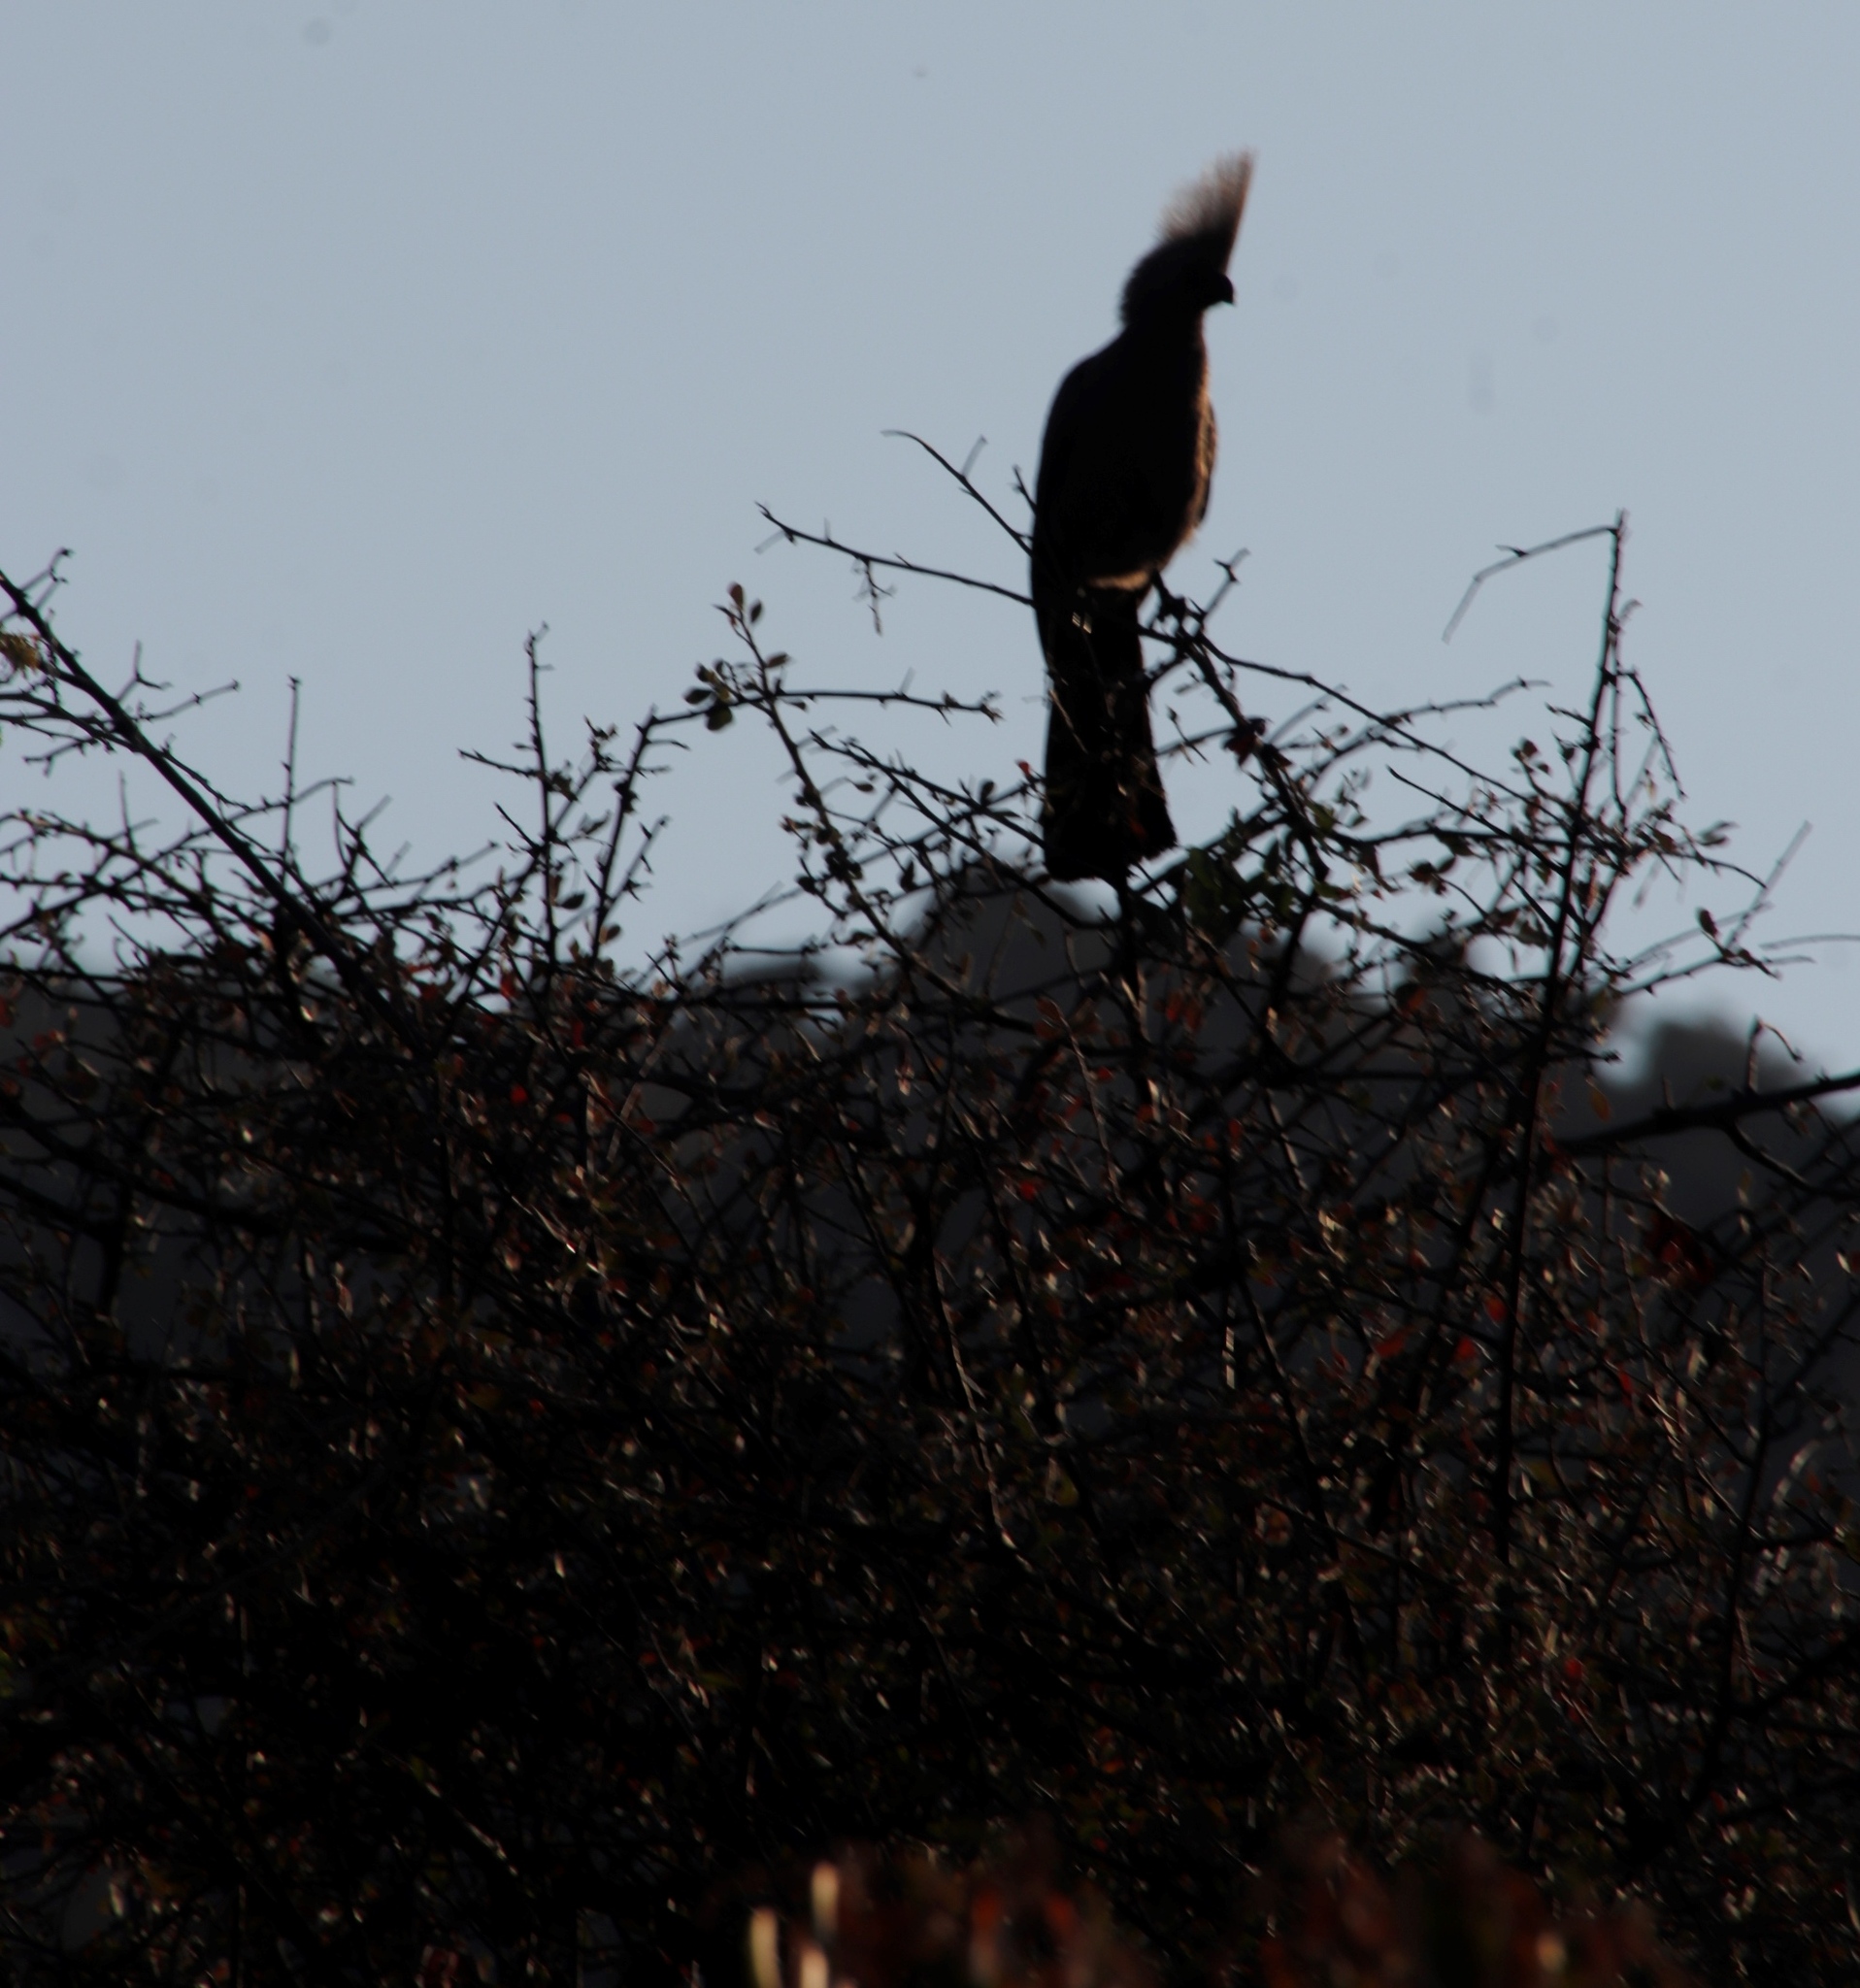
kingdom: Animalia
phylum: Chordata
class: Aves
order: Musophagiformes
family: Musophagidae
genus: Corythaixoides
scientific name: Corythaixoides concolor
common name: Grey go-away-bird
